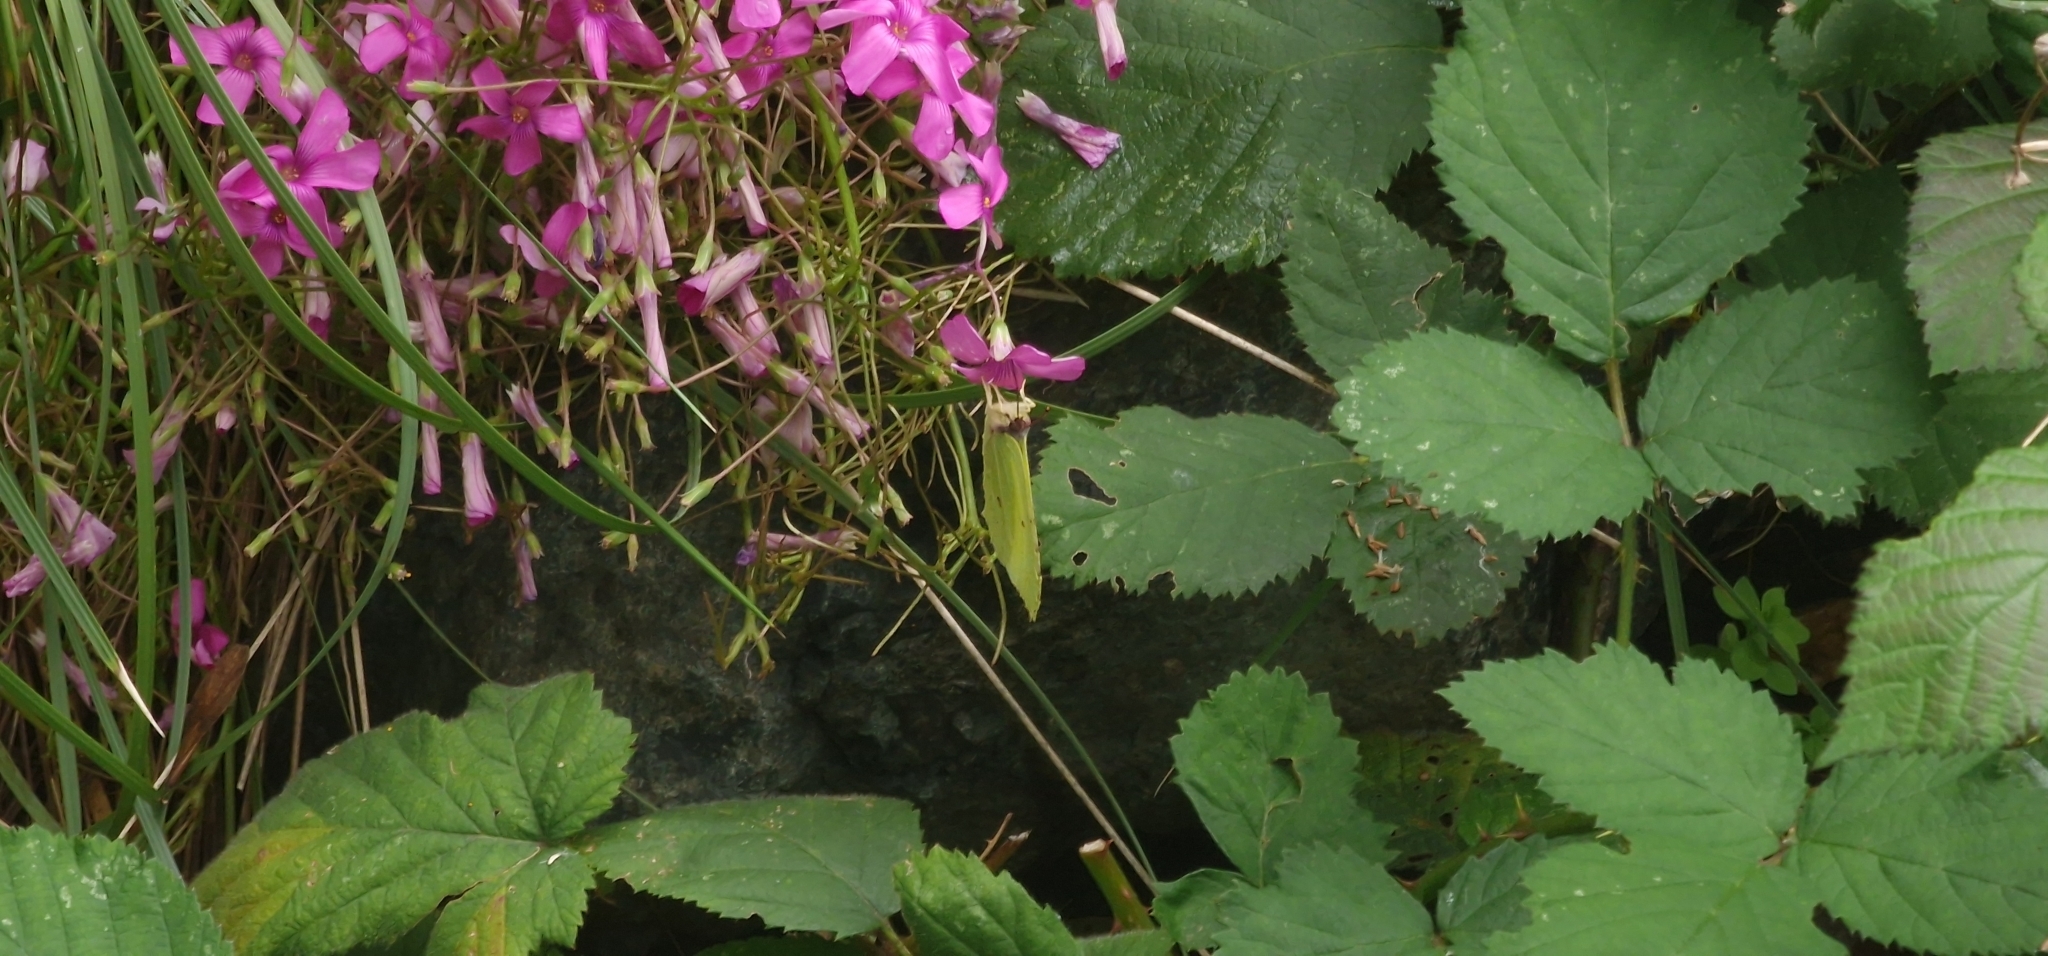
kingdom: Animalia
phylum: Arthropoda
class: Insecta
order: Lepidoptera
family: Pieridae
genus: Gonepteryx
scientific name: Gonepteryx rhamni
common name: Brimstone
